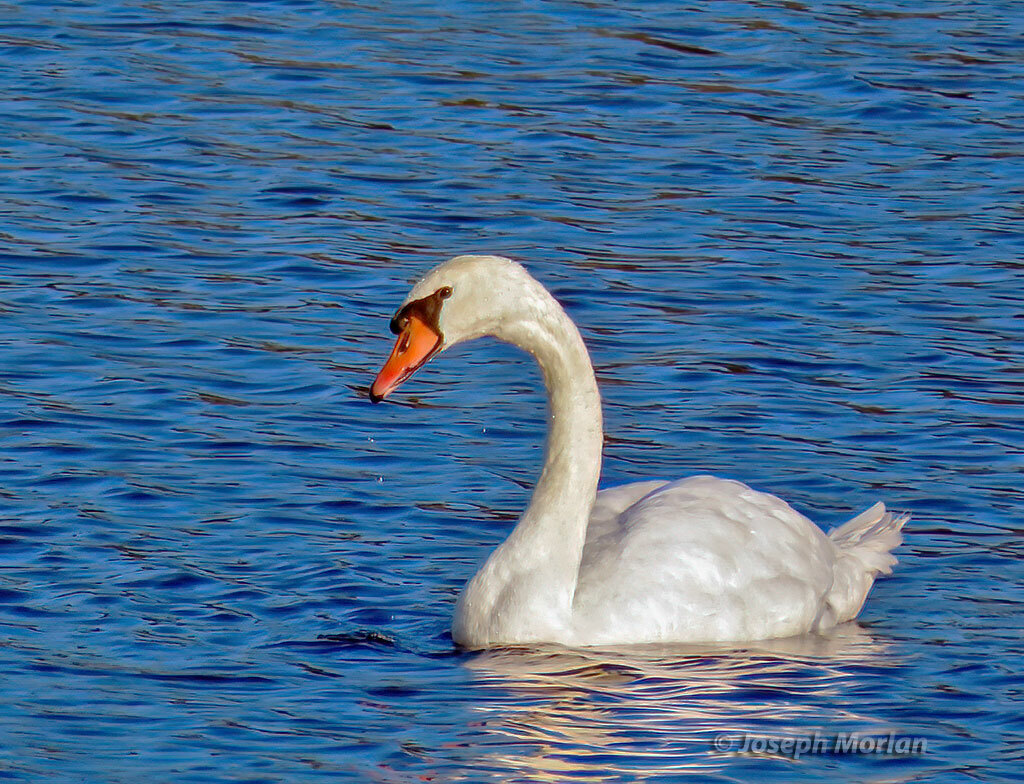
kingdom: Animalia
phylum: Chordata
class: Aves
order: Anseriformes
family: Anatidae
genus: Cygnus
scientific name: Cygnus olor
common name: Mute swan
